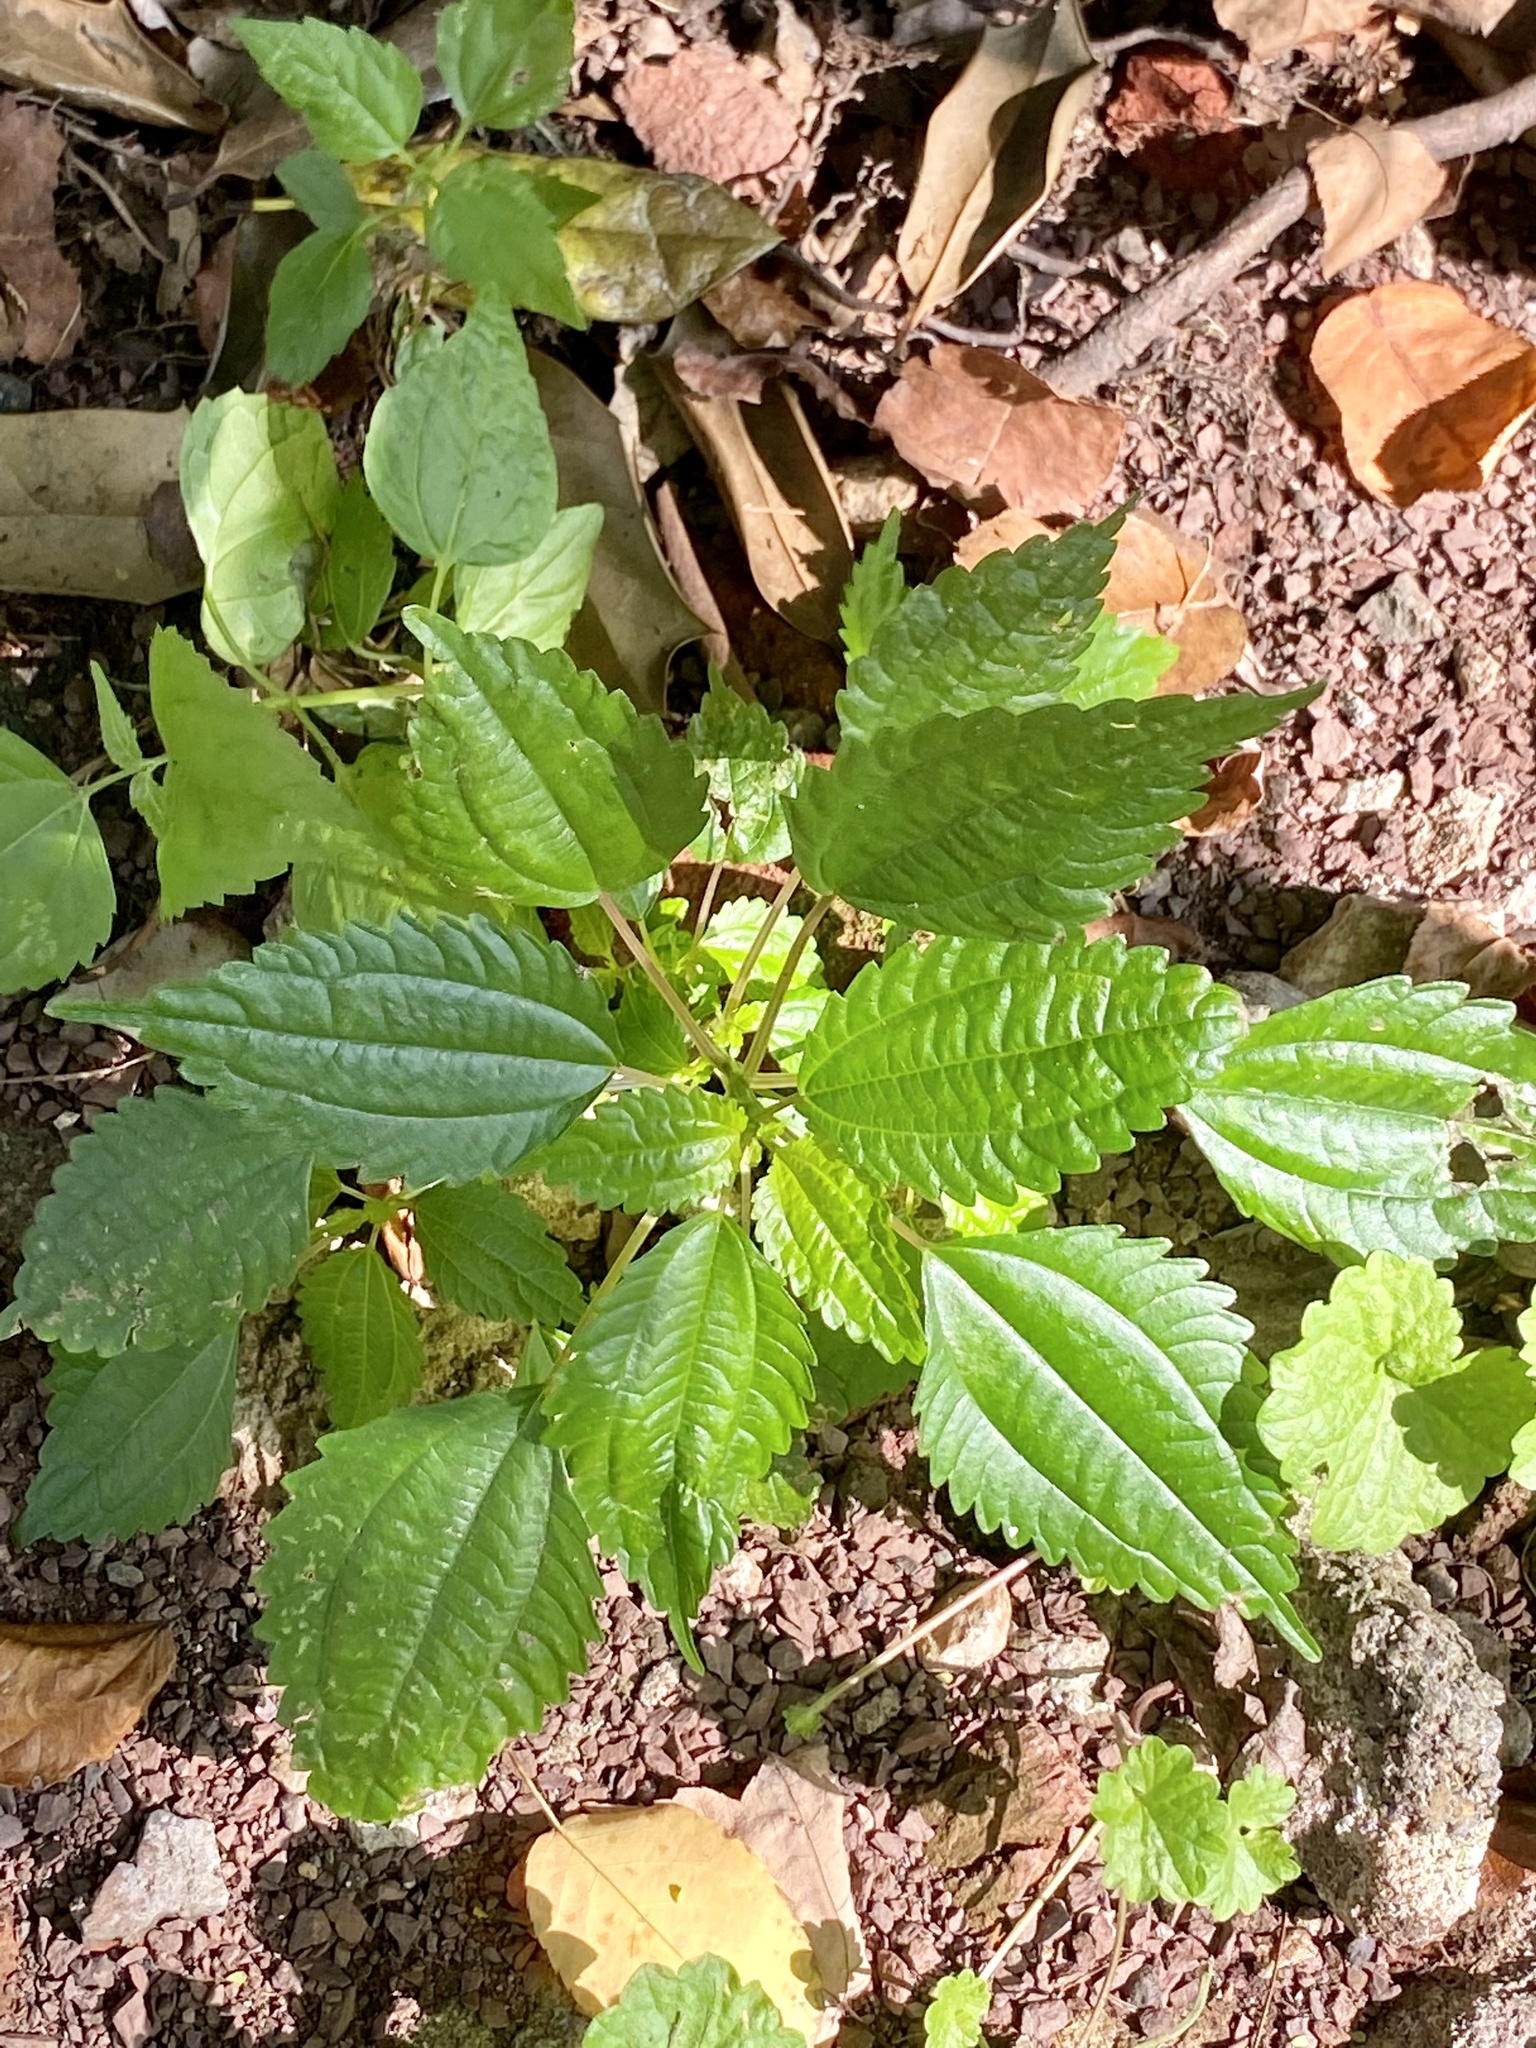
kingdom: Plantae
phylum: Tracheophyta
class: Magnoliopsida
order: Rosales
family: Urticaceae
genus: Pilea
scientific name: Pilea pumila
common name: Clearweed
